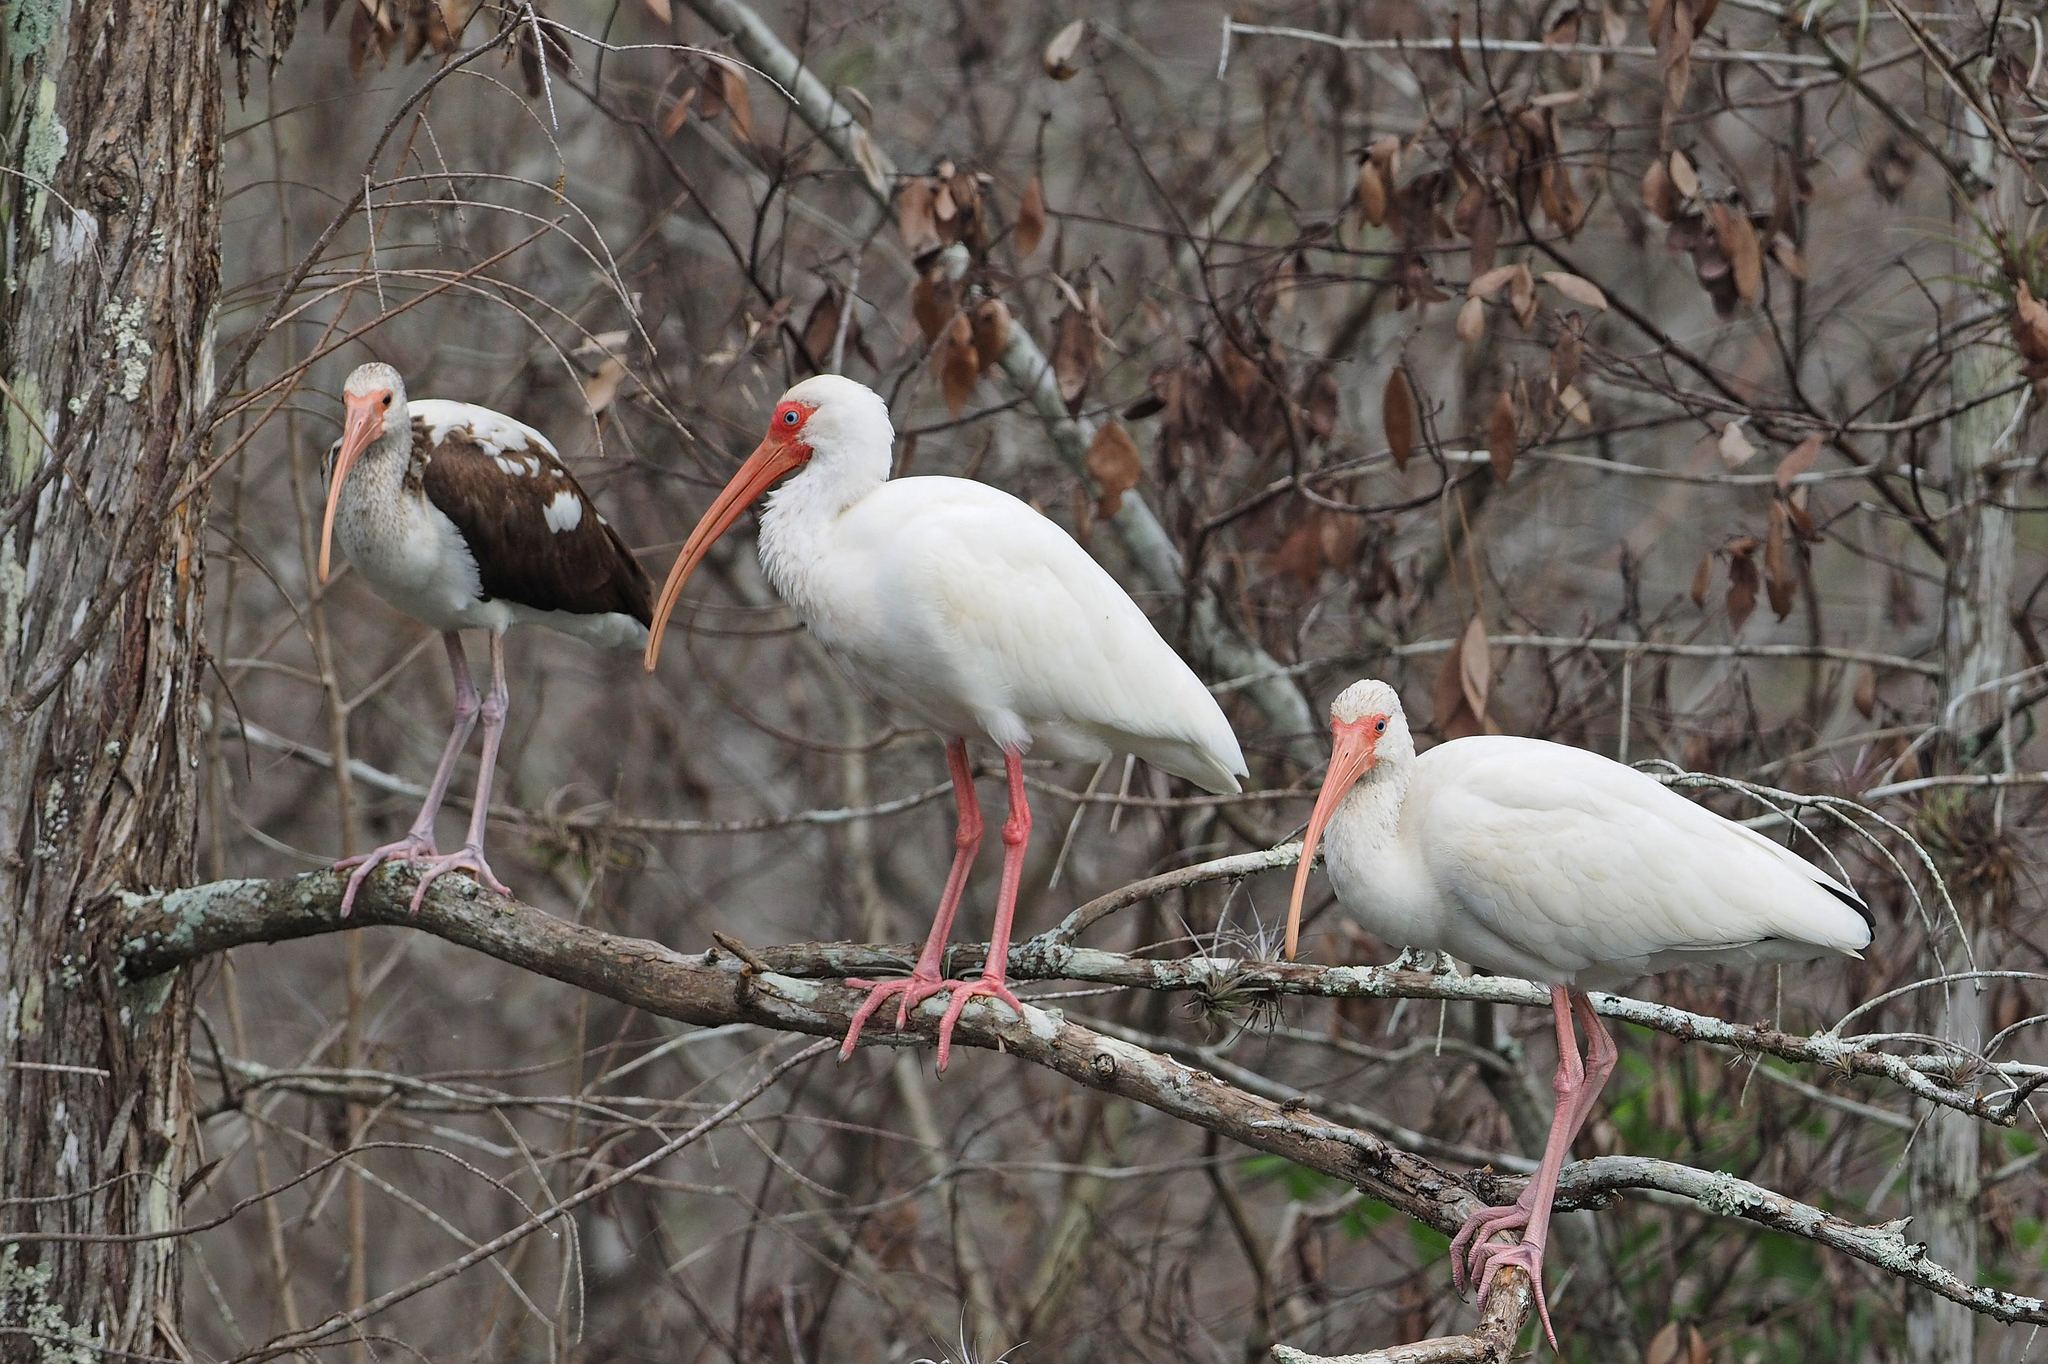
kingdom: Animalia
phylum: Chordata
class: Aves
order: Pelecaniformes
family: Threskiornithidae
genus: Eudocimus
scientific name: Eudocimus albus
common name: White ibis
